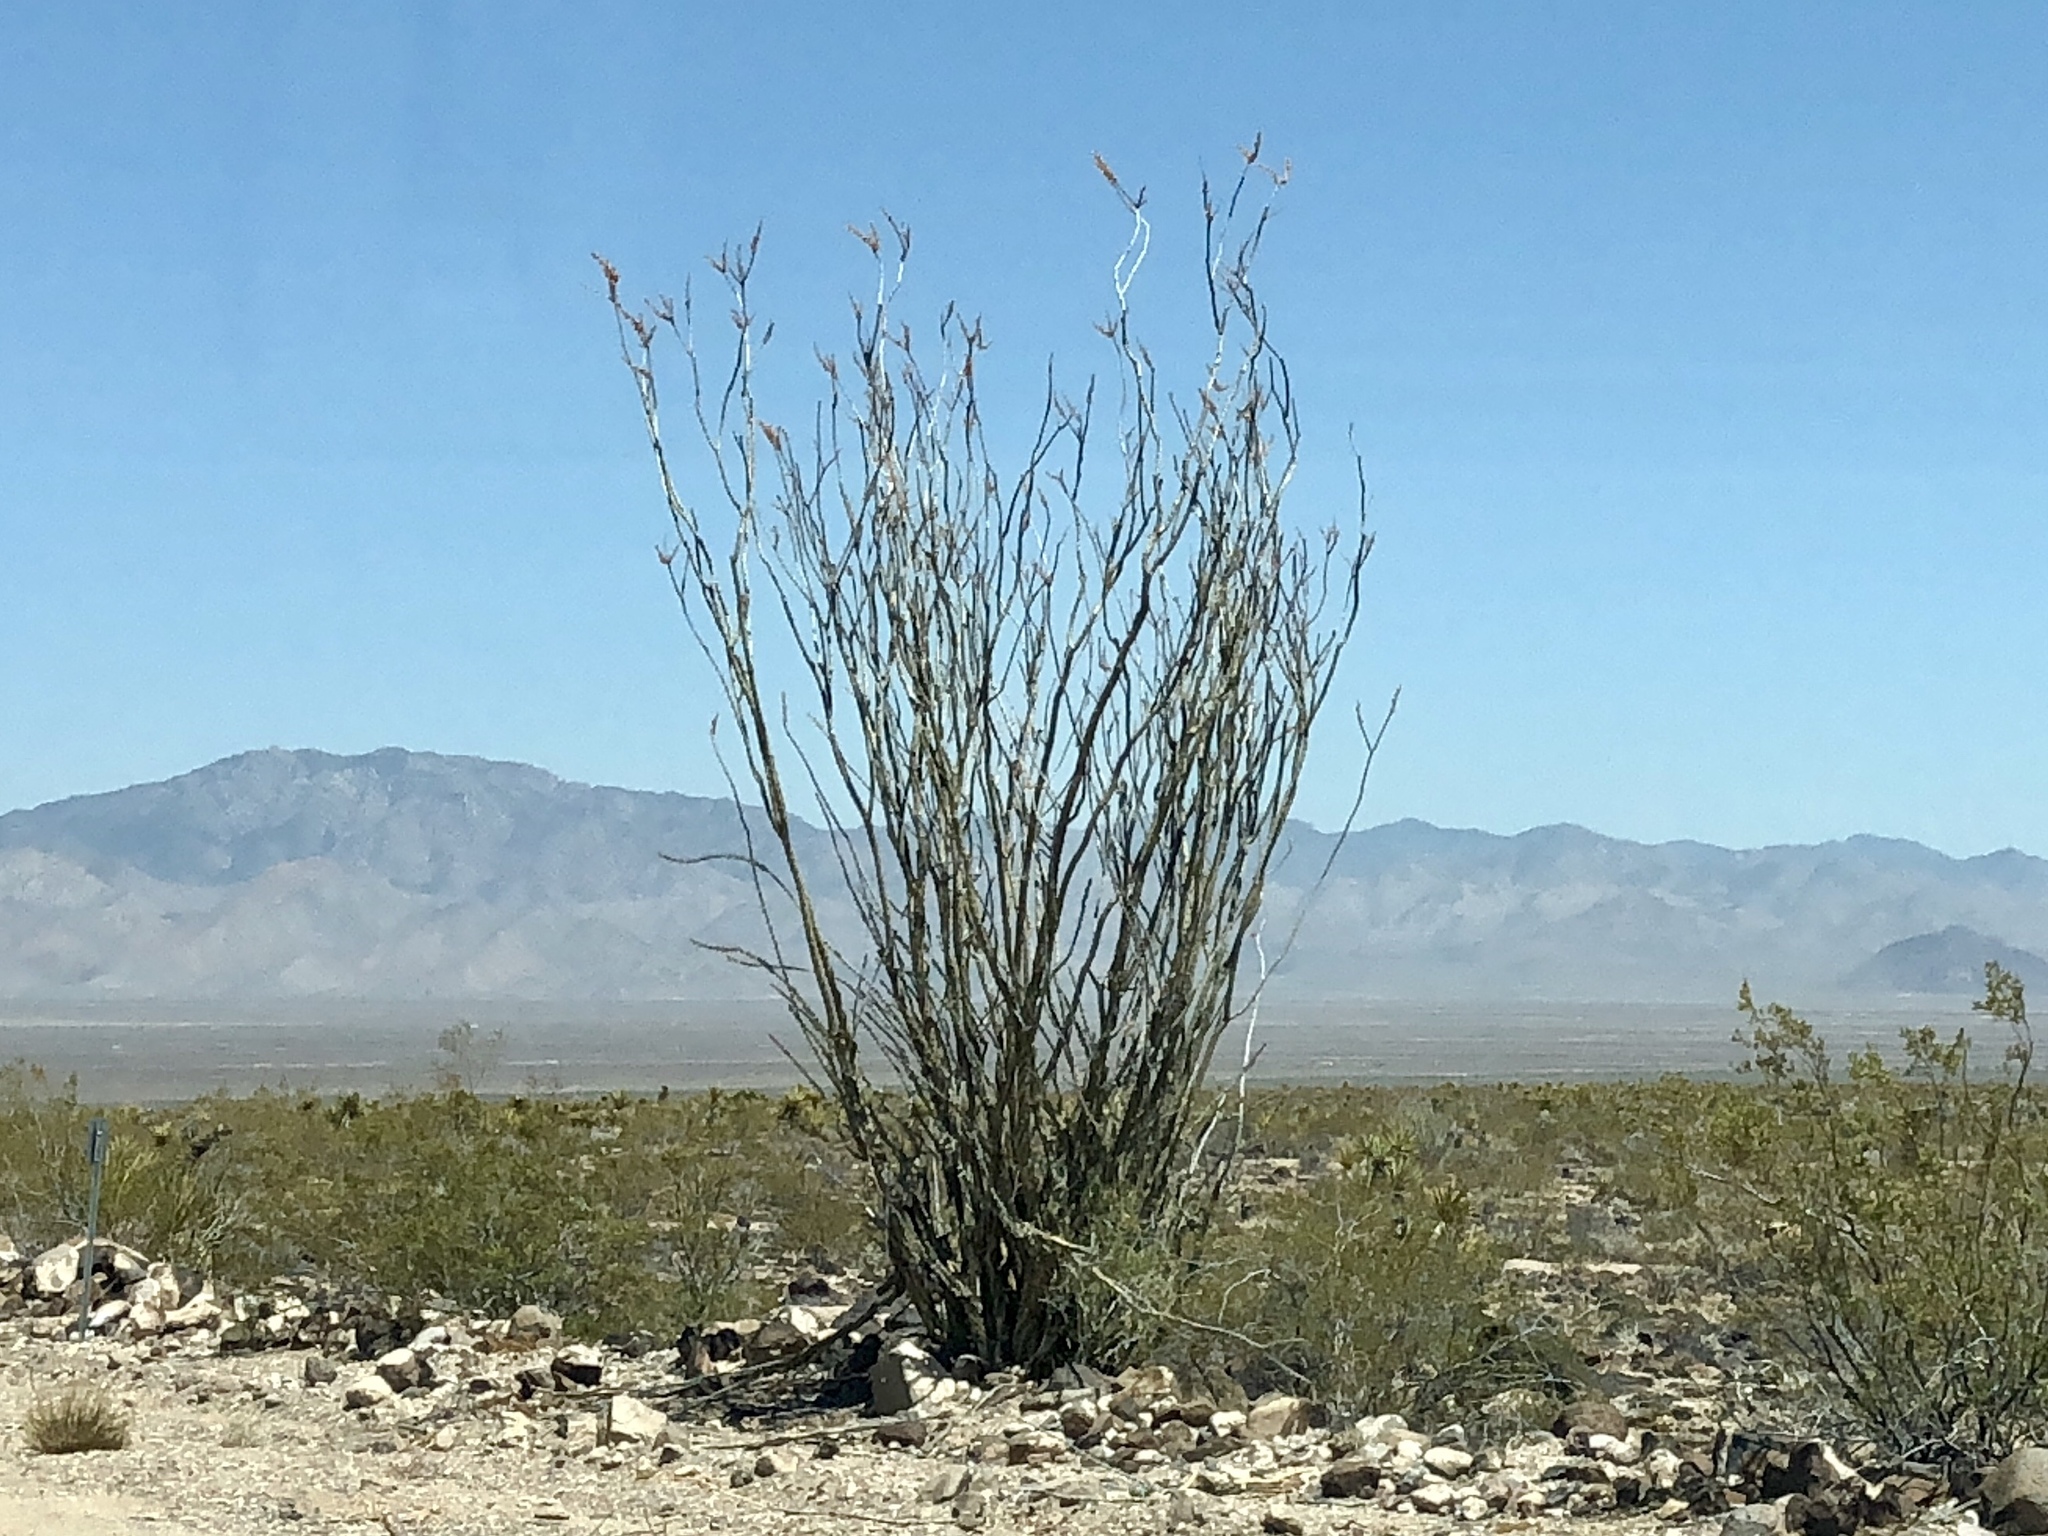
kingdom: Plantae
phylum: Tracheophyta
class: Magnoliopsida
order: Ericales
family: Fouquieriaceae
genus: Fouquieria
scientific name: Fouquieria splendens
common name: Vine-cactus
